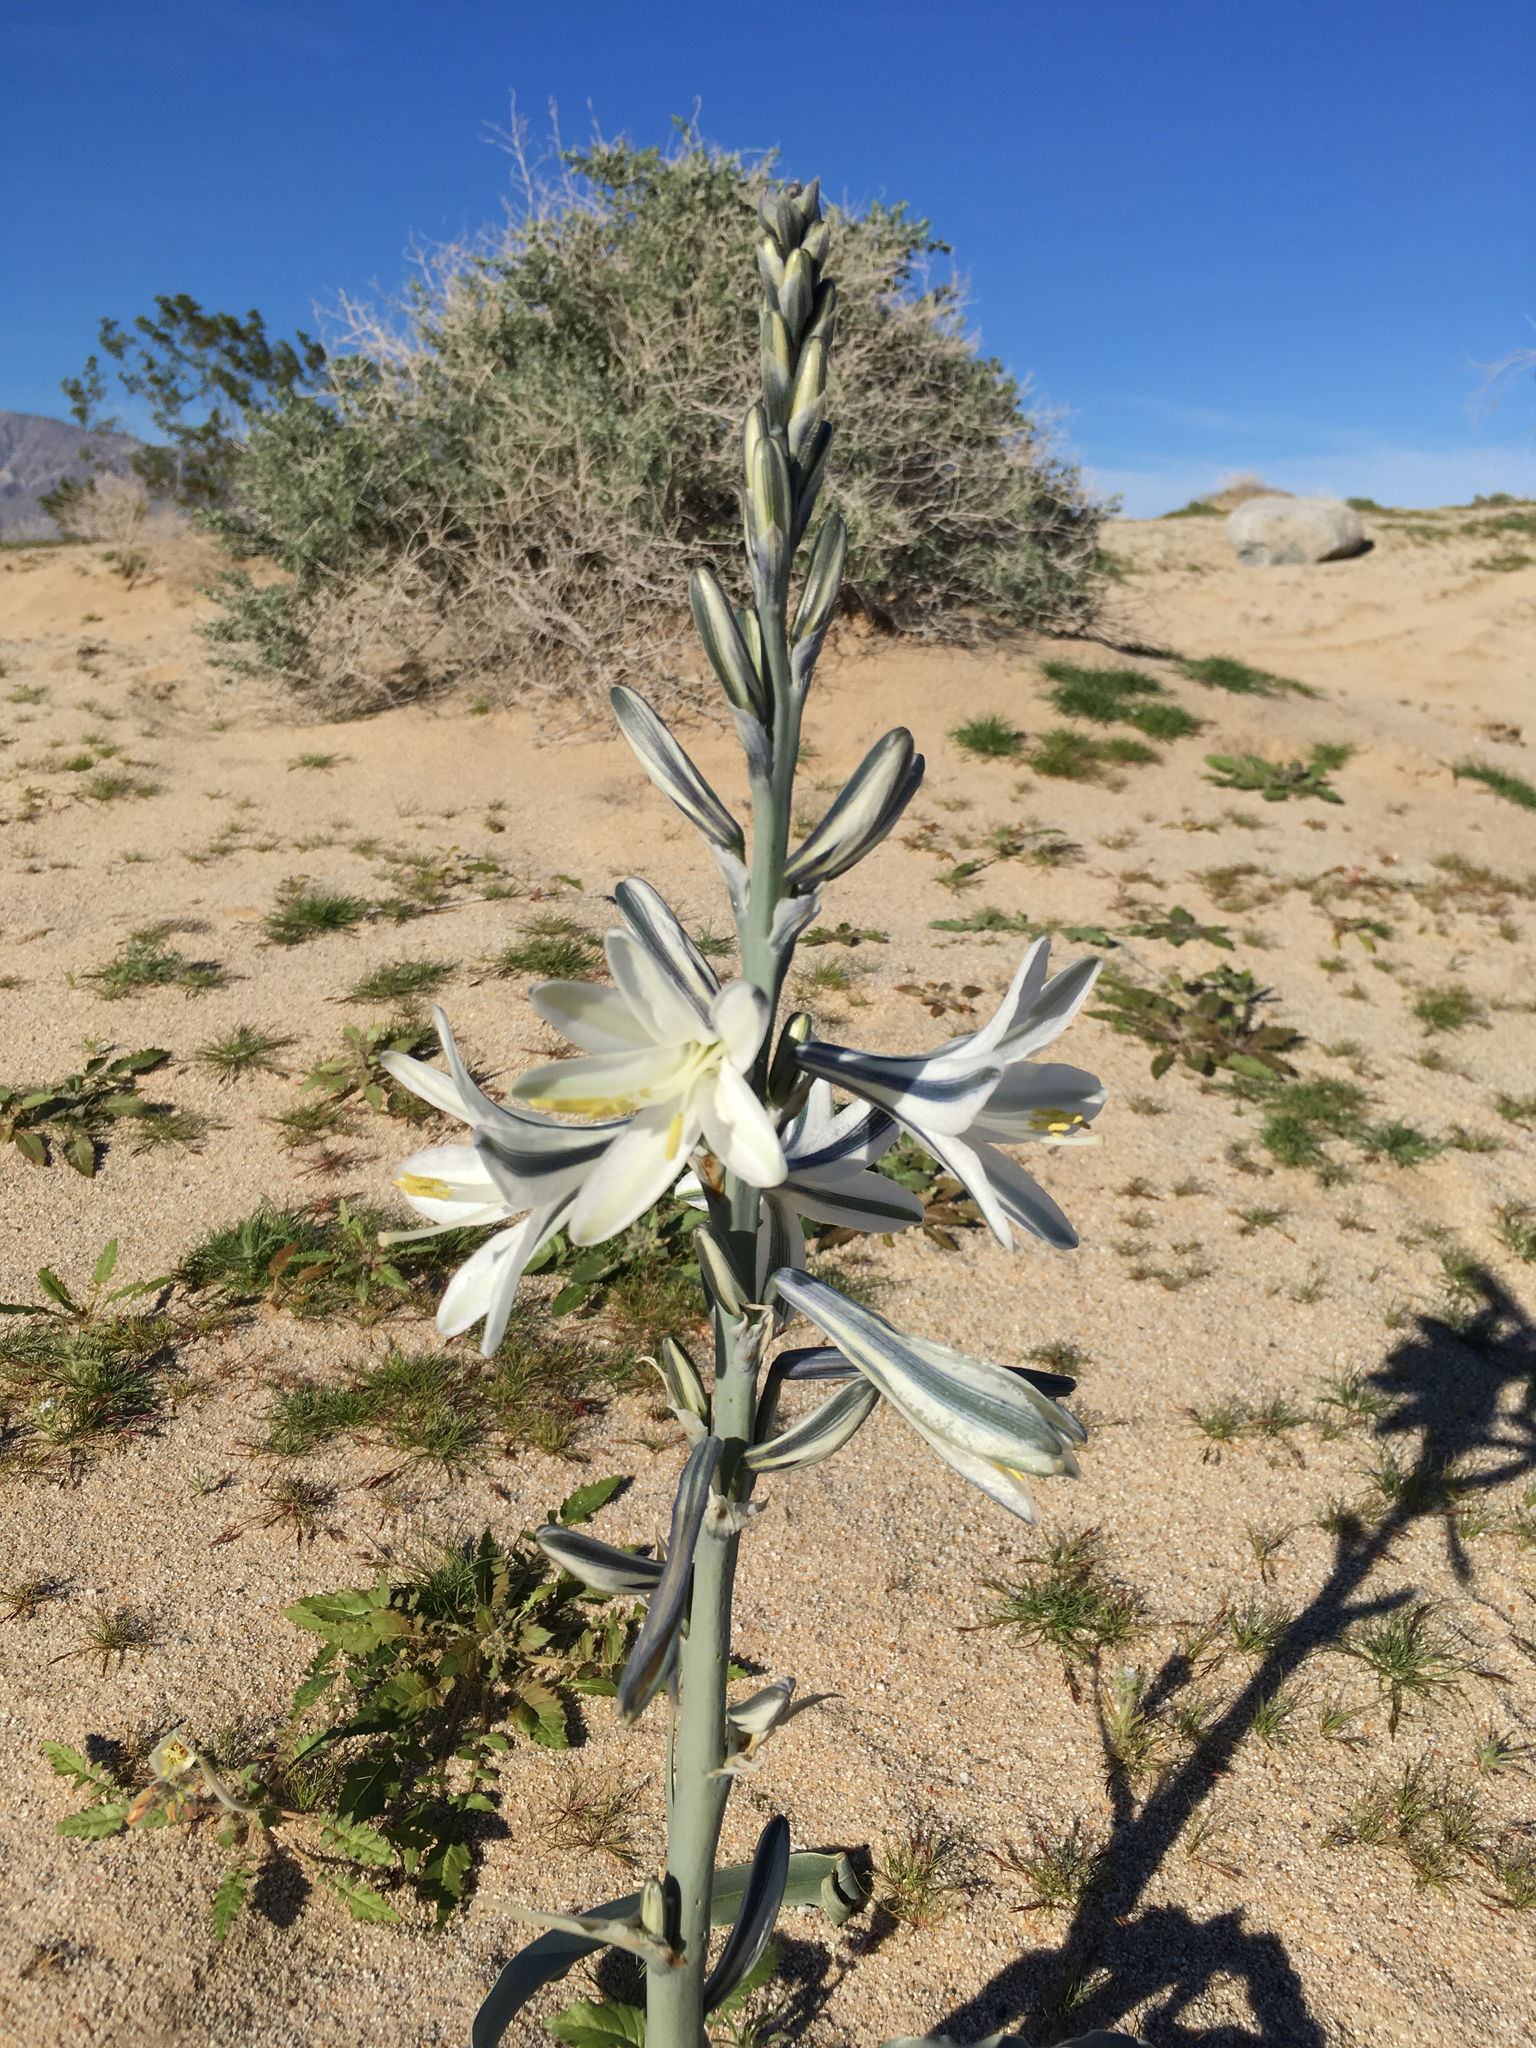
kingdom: Plantae
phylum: Tracheophyta
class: Liliopsida
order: Asparagales
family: Asparagaceae
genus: Hesperocallis
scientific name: Hesperocallis undulata
